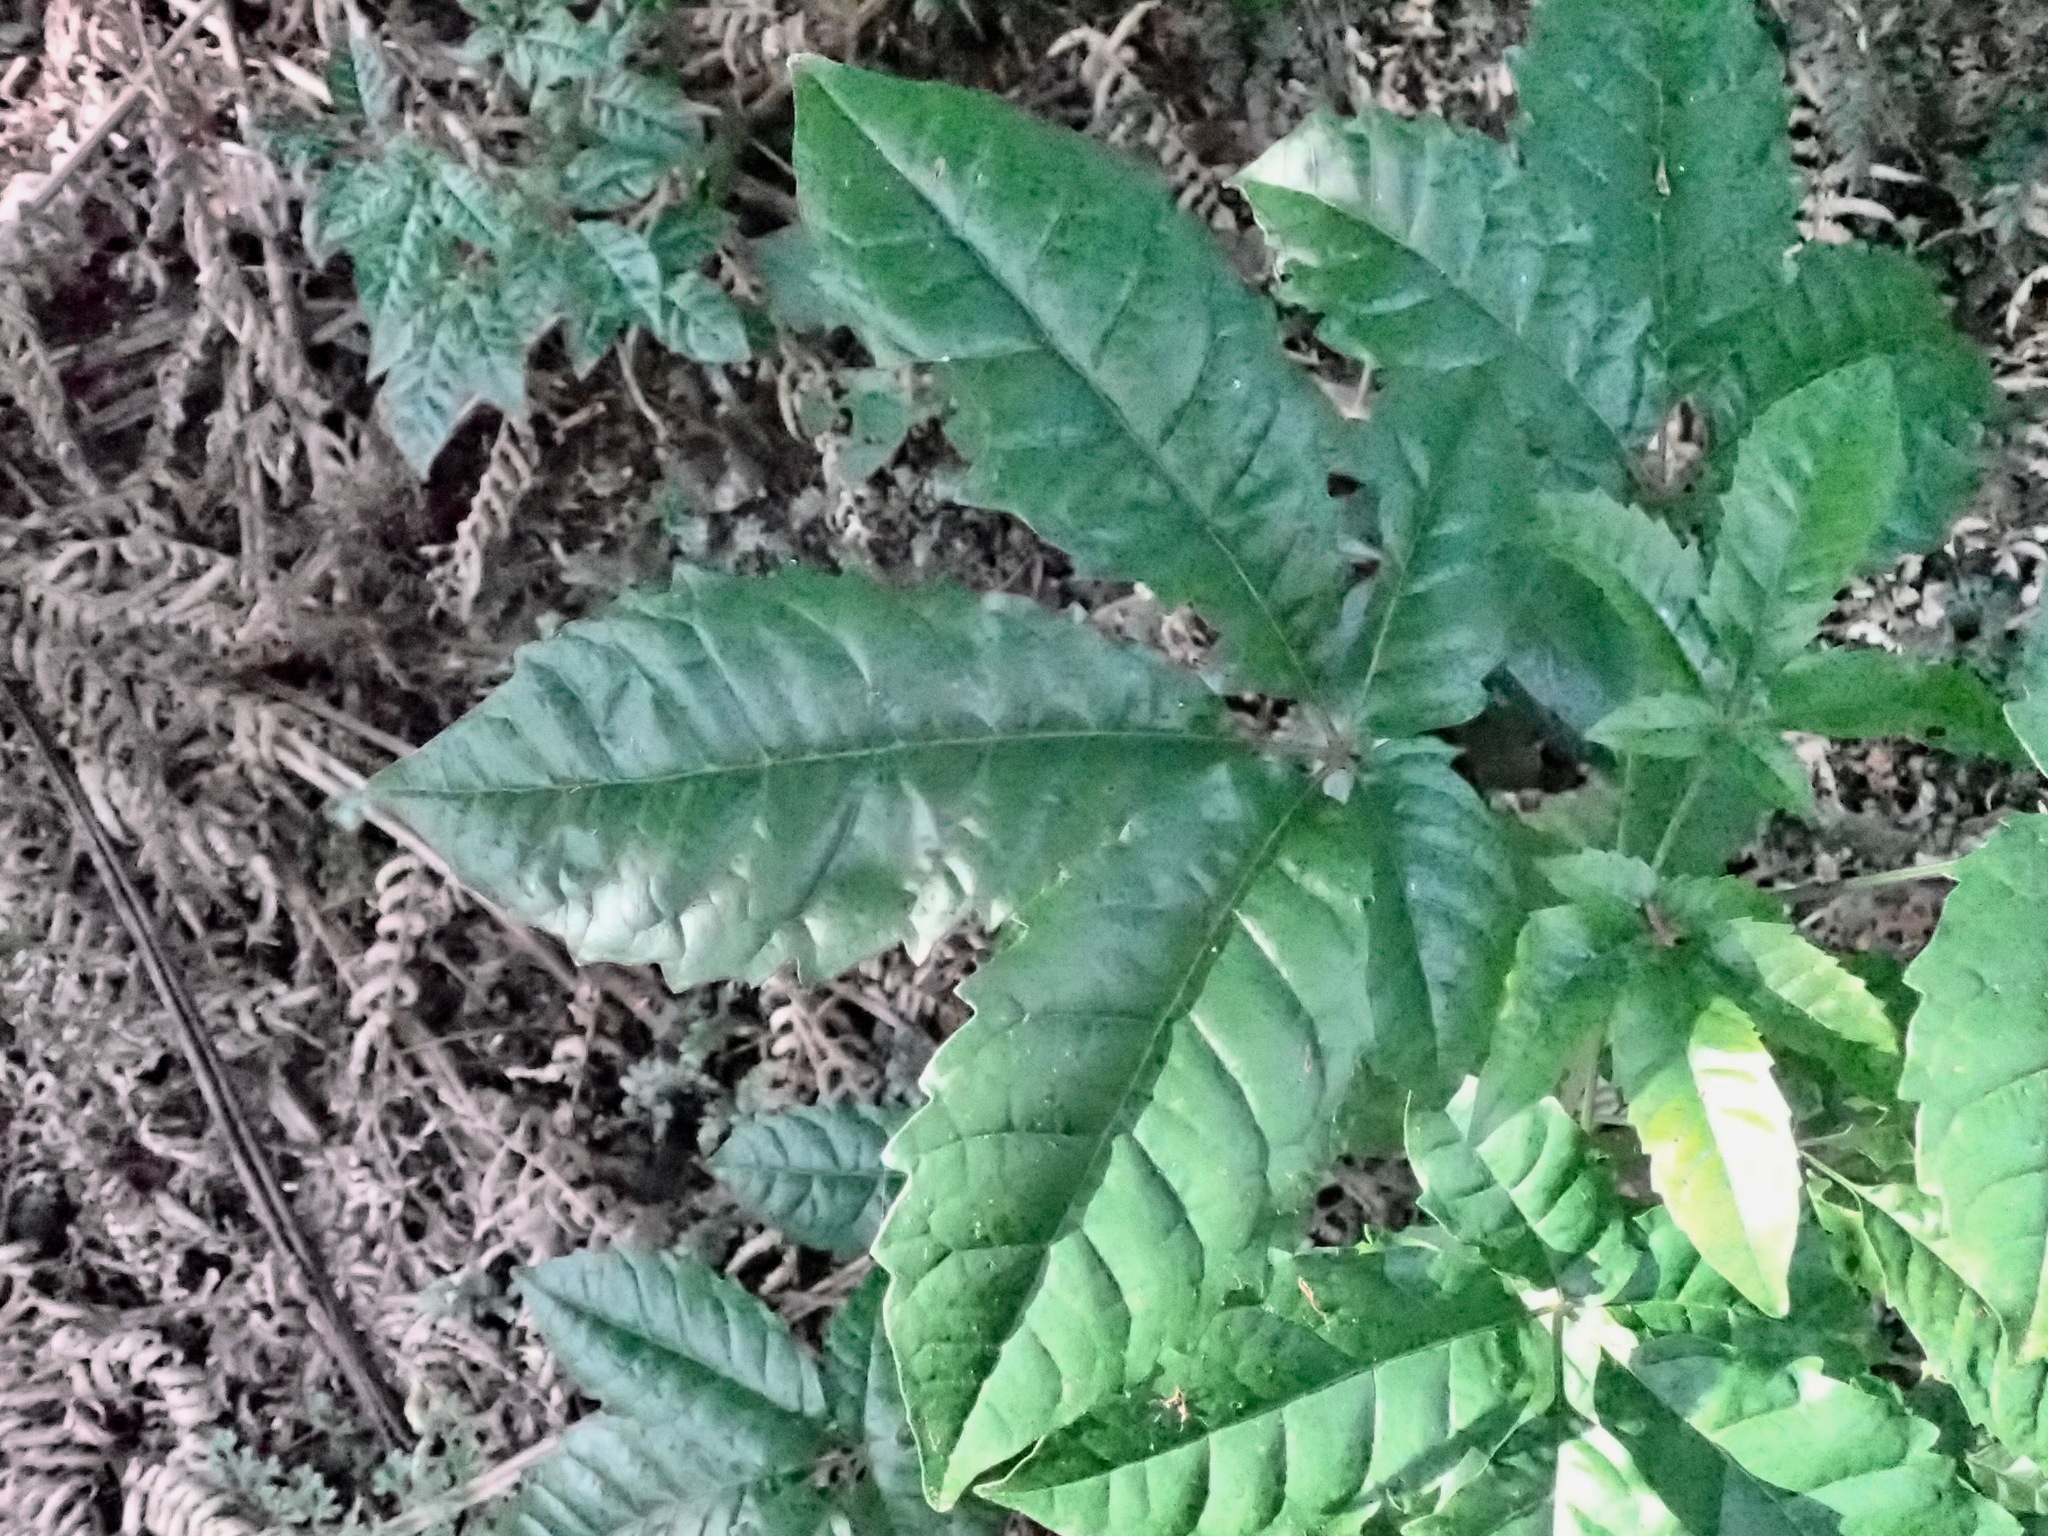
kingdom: Plantae
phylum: Tracheophyta
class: Magnoliopsida
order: Lamiales
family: Lamiaceae
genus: Vitex
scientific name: Vitex lucens
